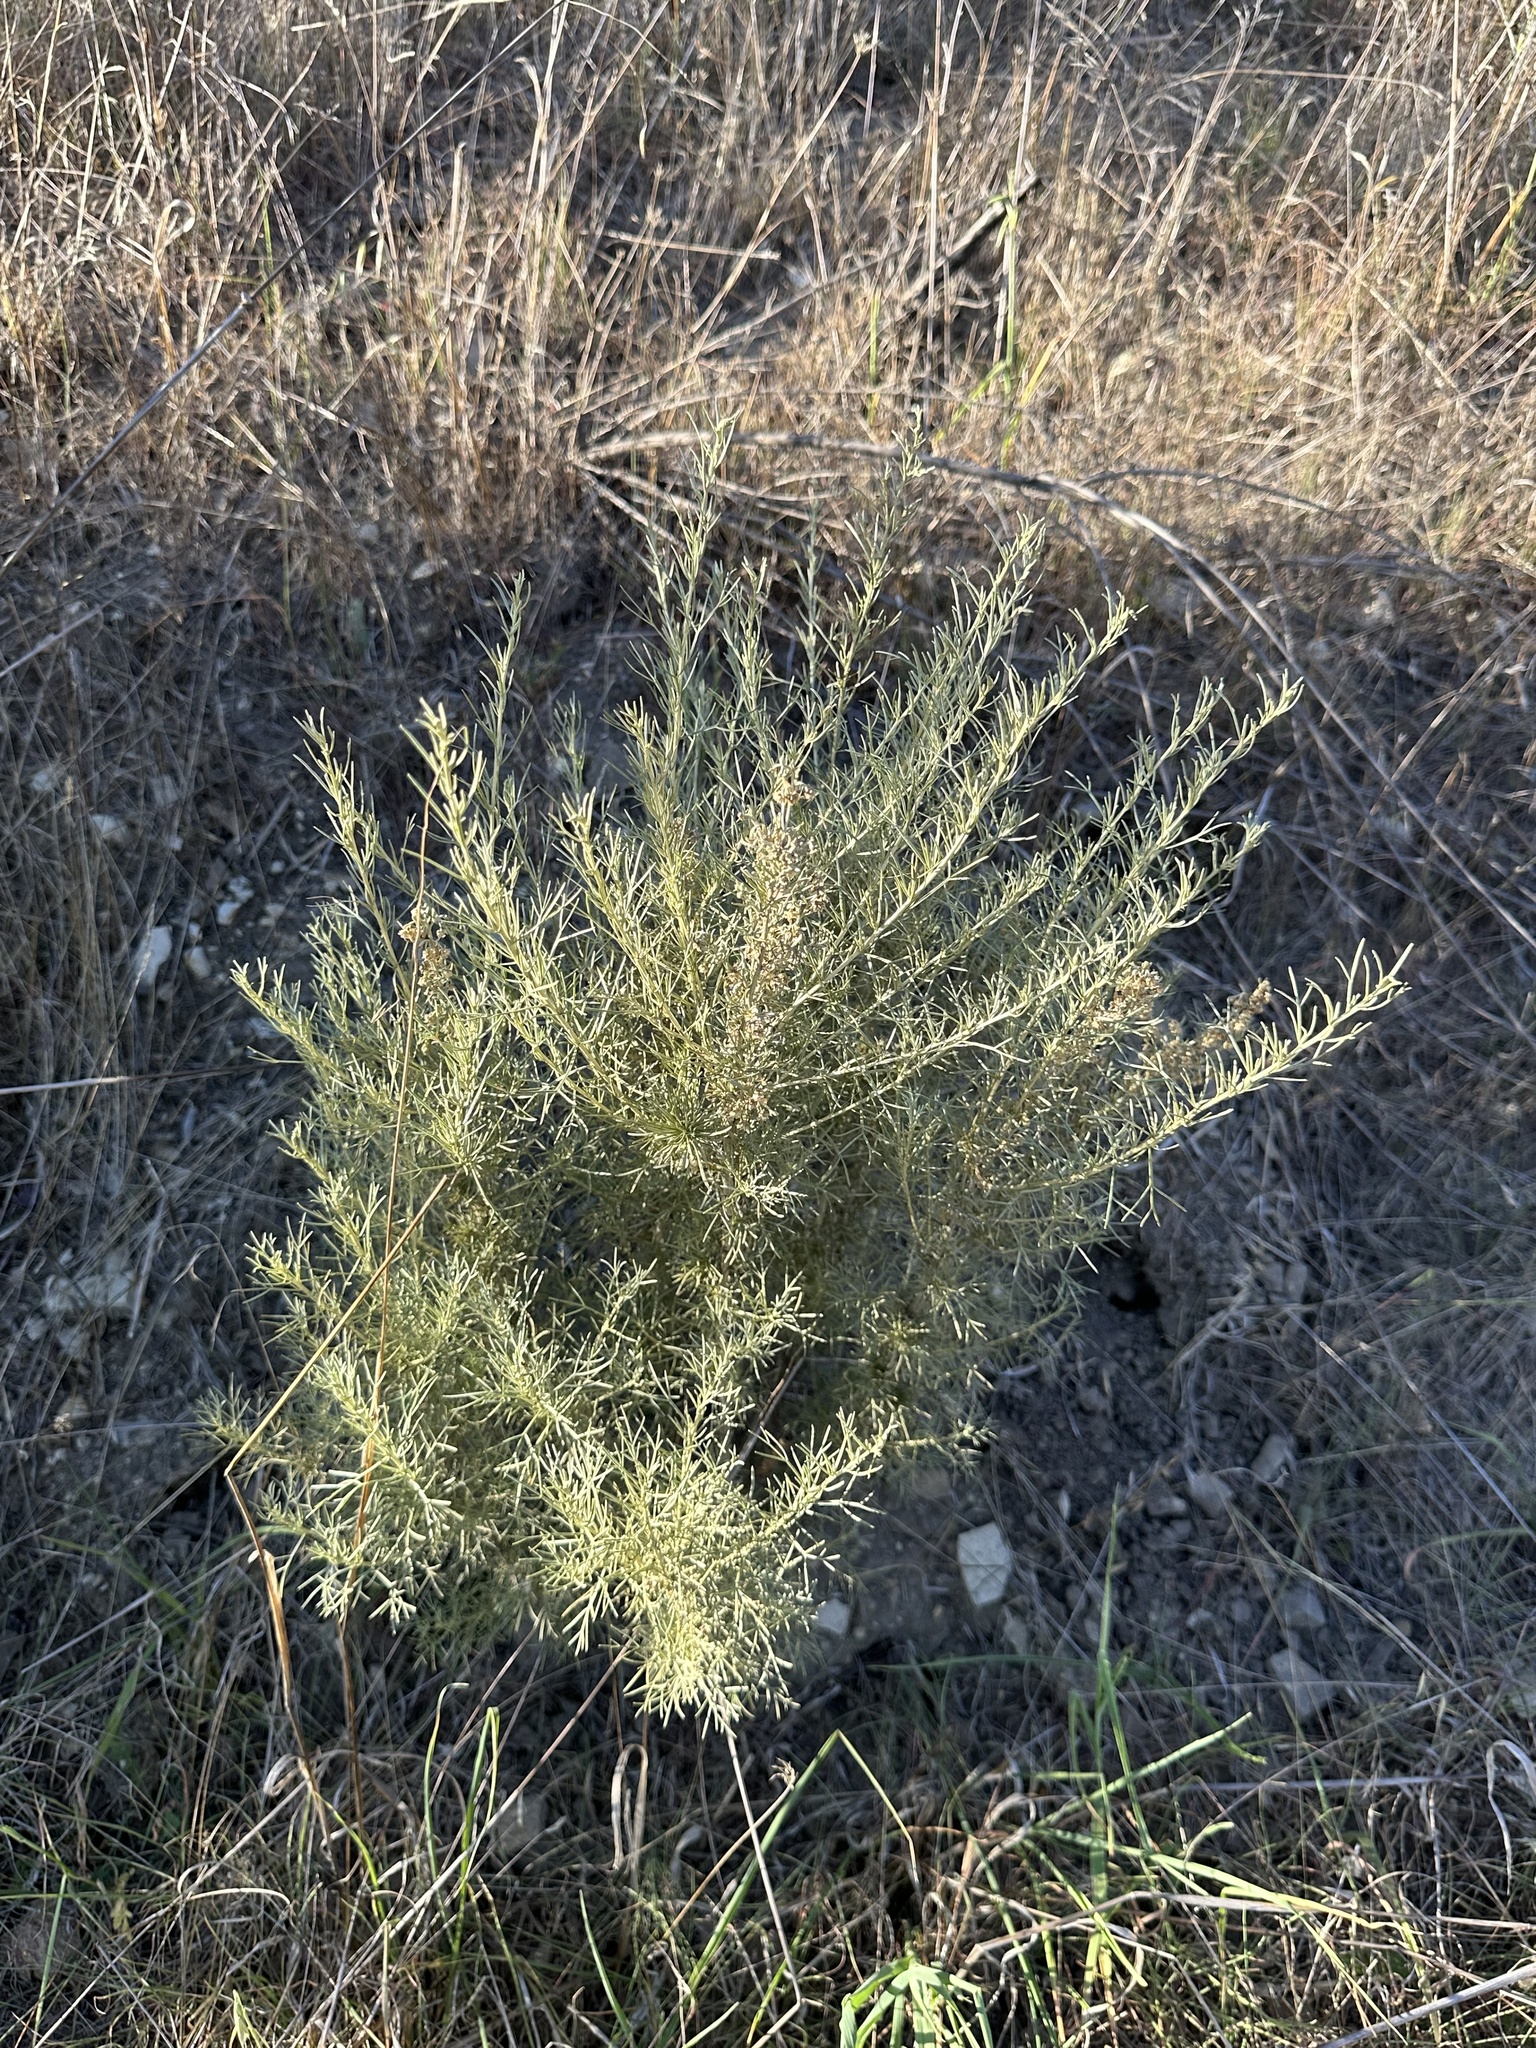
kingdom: Plantae
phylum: Tracheophyta
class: Magnoliopsida
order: Asterales
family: Asteraceae
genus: Artemisia
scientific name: Artemisia californica
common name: California sagebrush
